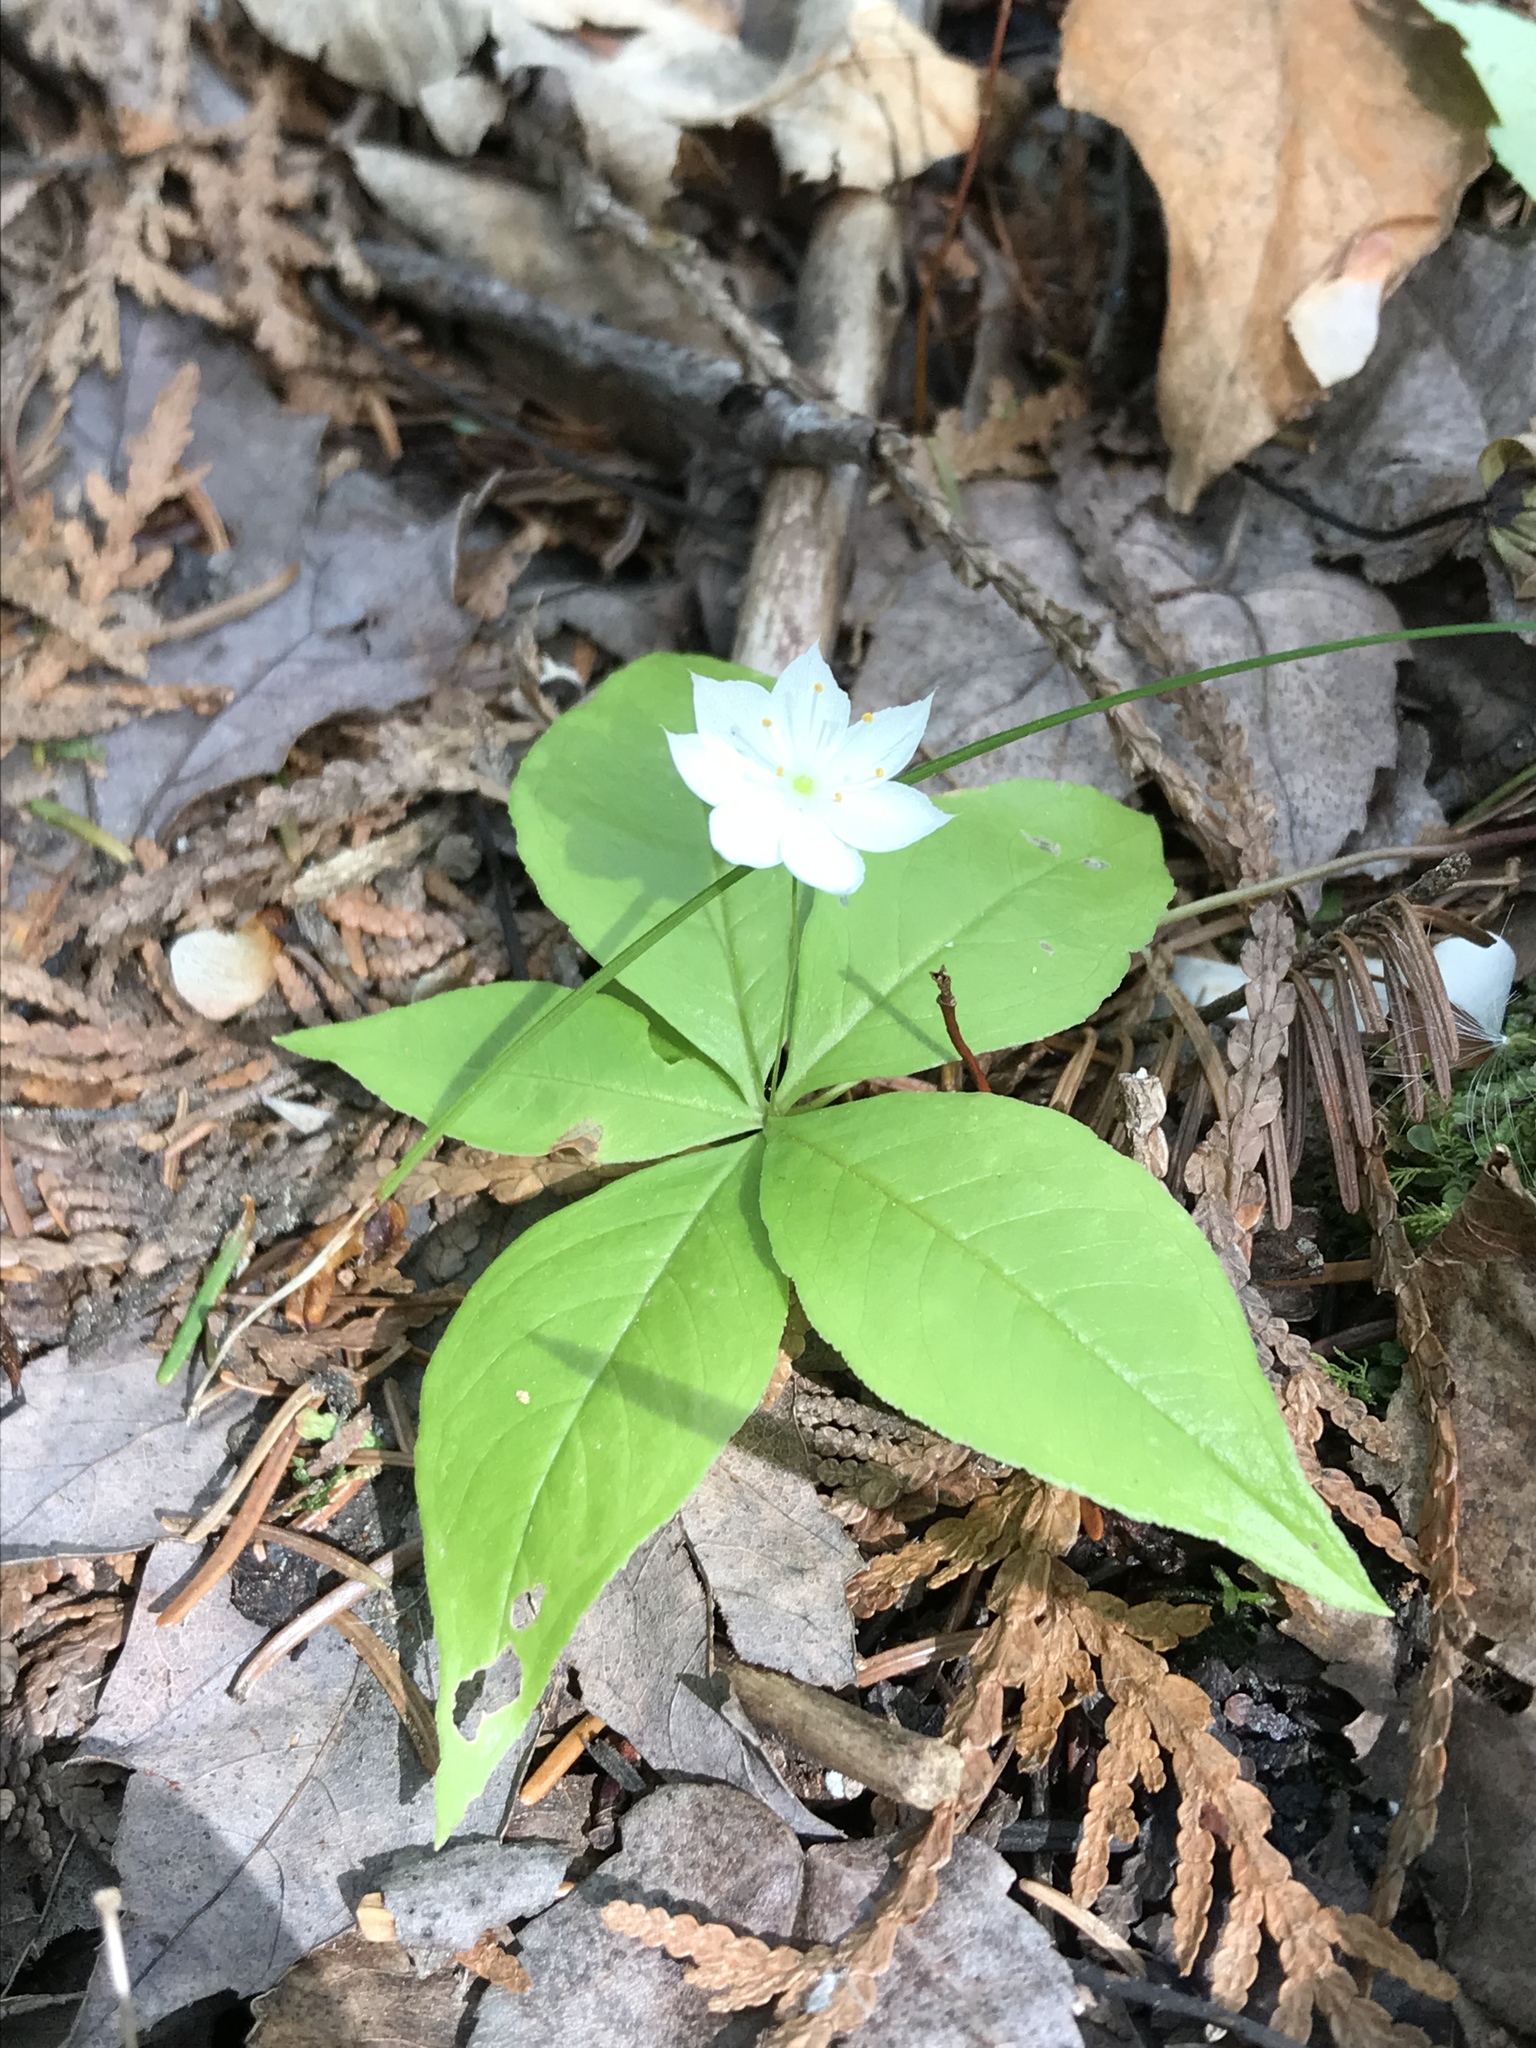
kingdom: Plantae
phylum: Tracheophyta
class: Magnoliopsida
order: Ericales
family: Primulaceae
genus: Lysimachia
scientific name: Lysimachia borealis
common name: American starflower
